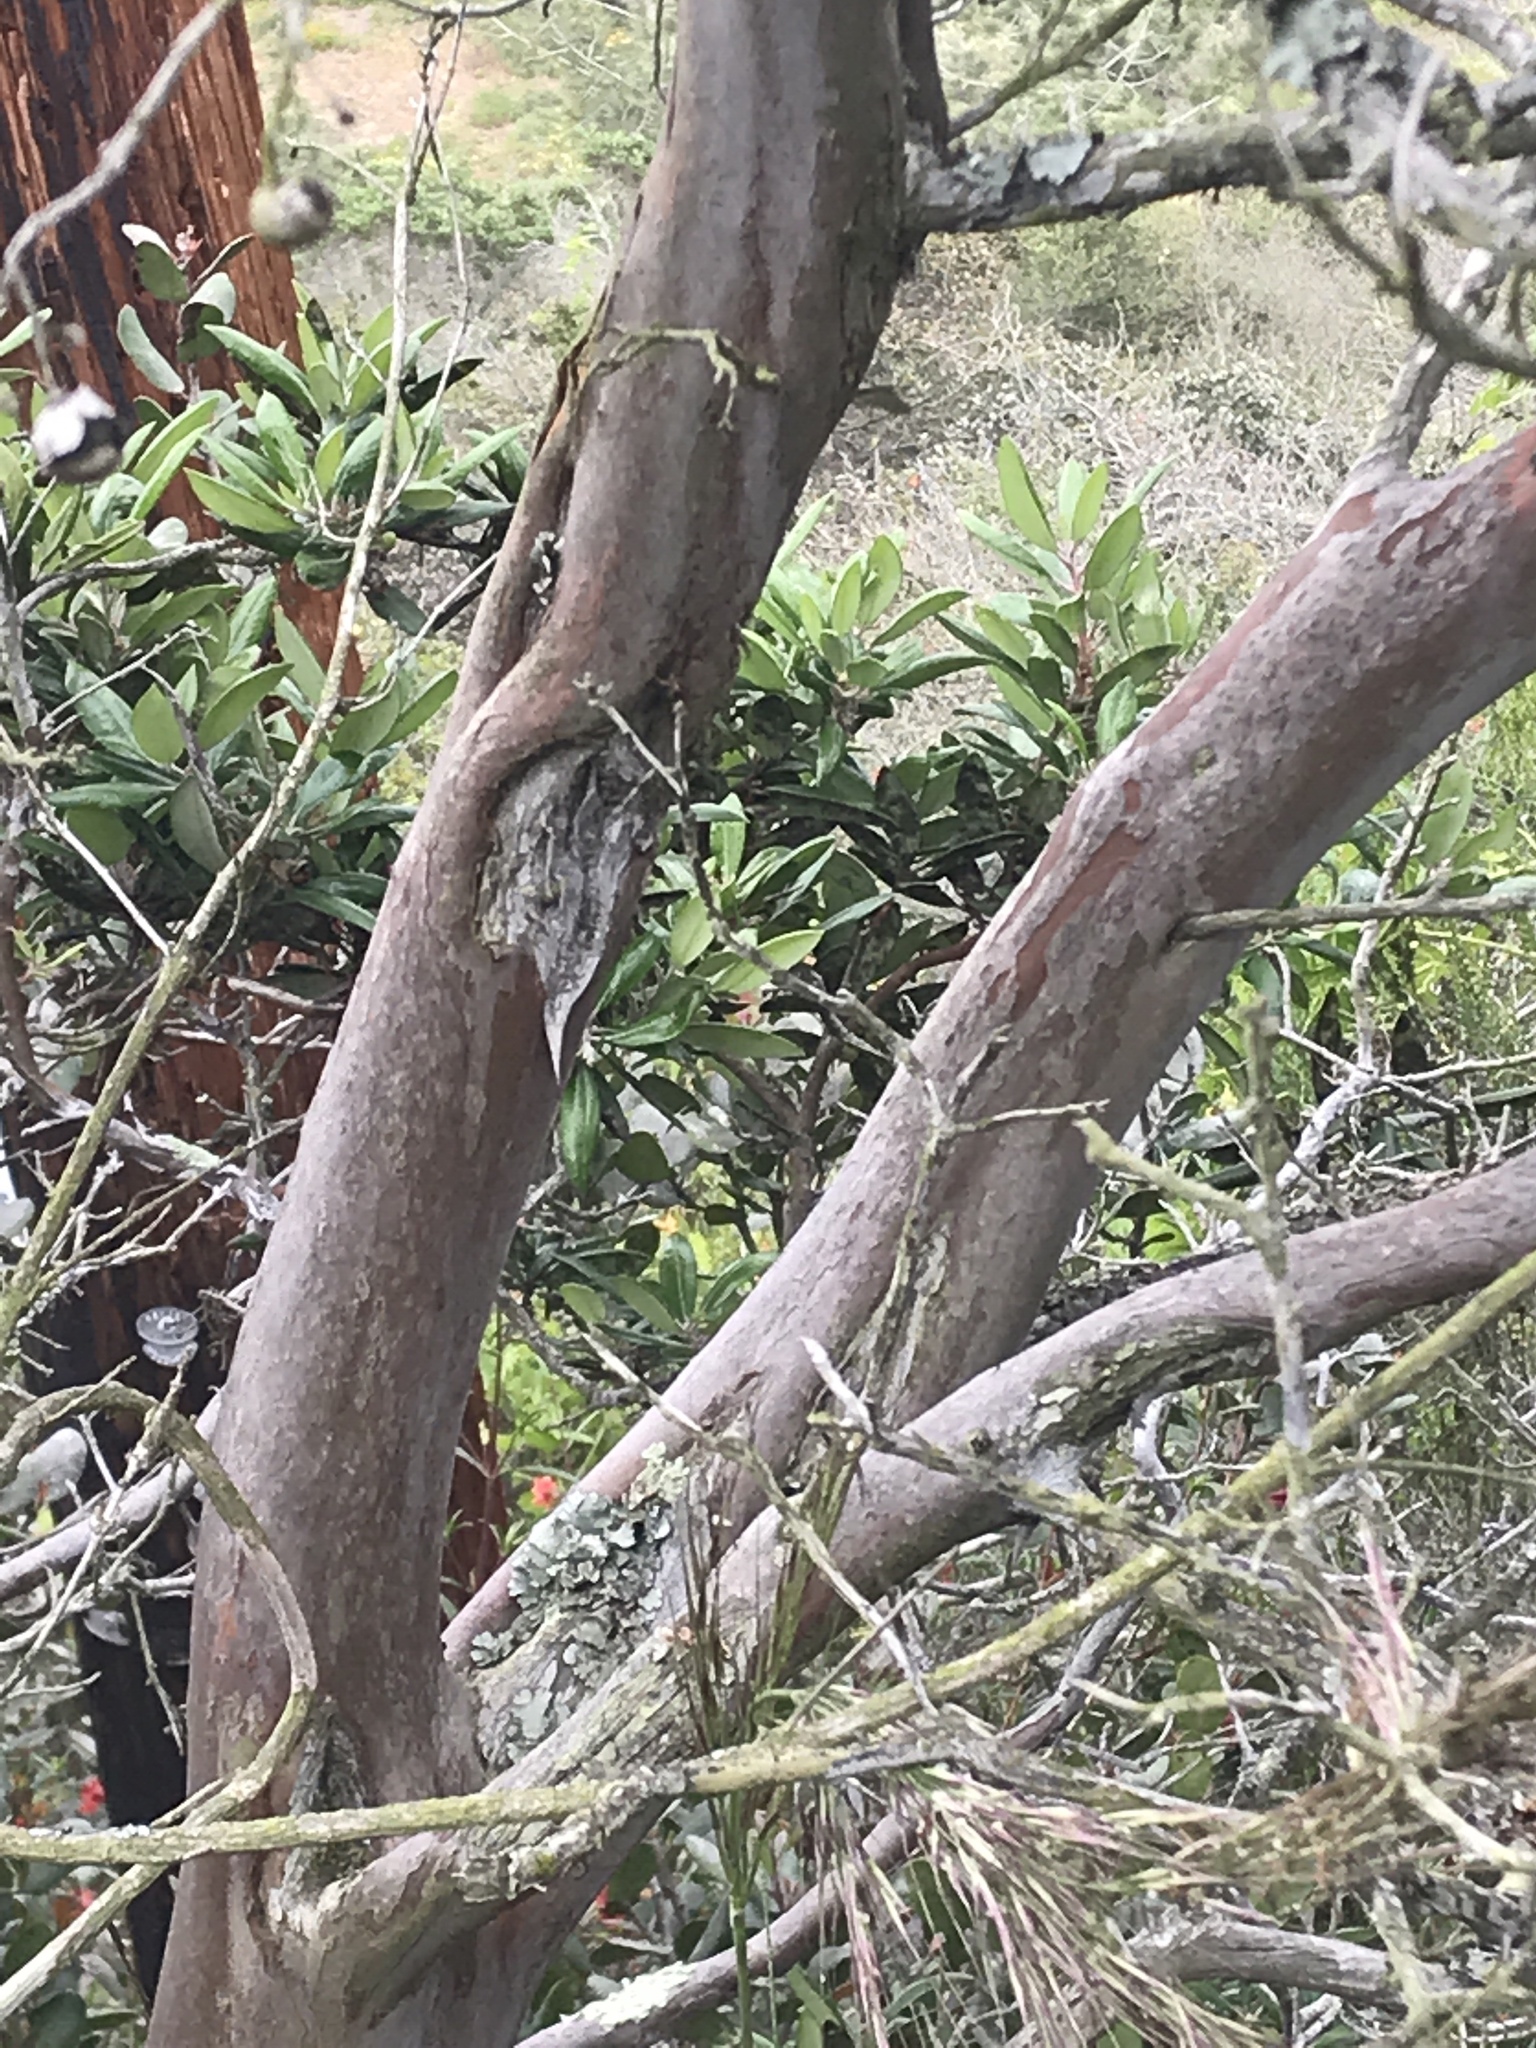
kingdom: Plantae
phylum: Tracheophyta
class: Magnoliopsida
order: Ericales
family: Ericaceae
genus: Arctostaphylos
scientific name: Arctostaphylos bicolor
